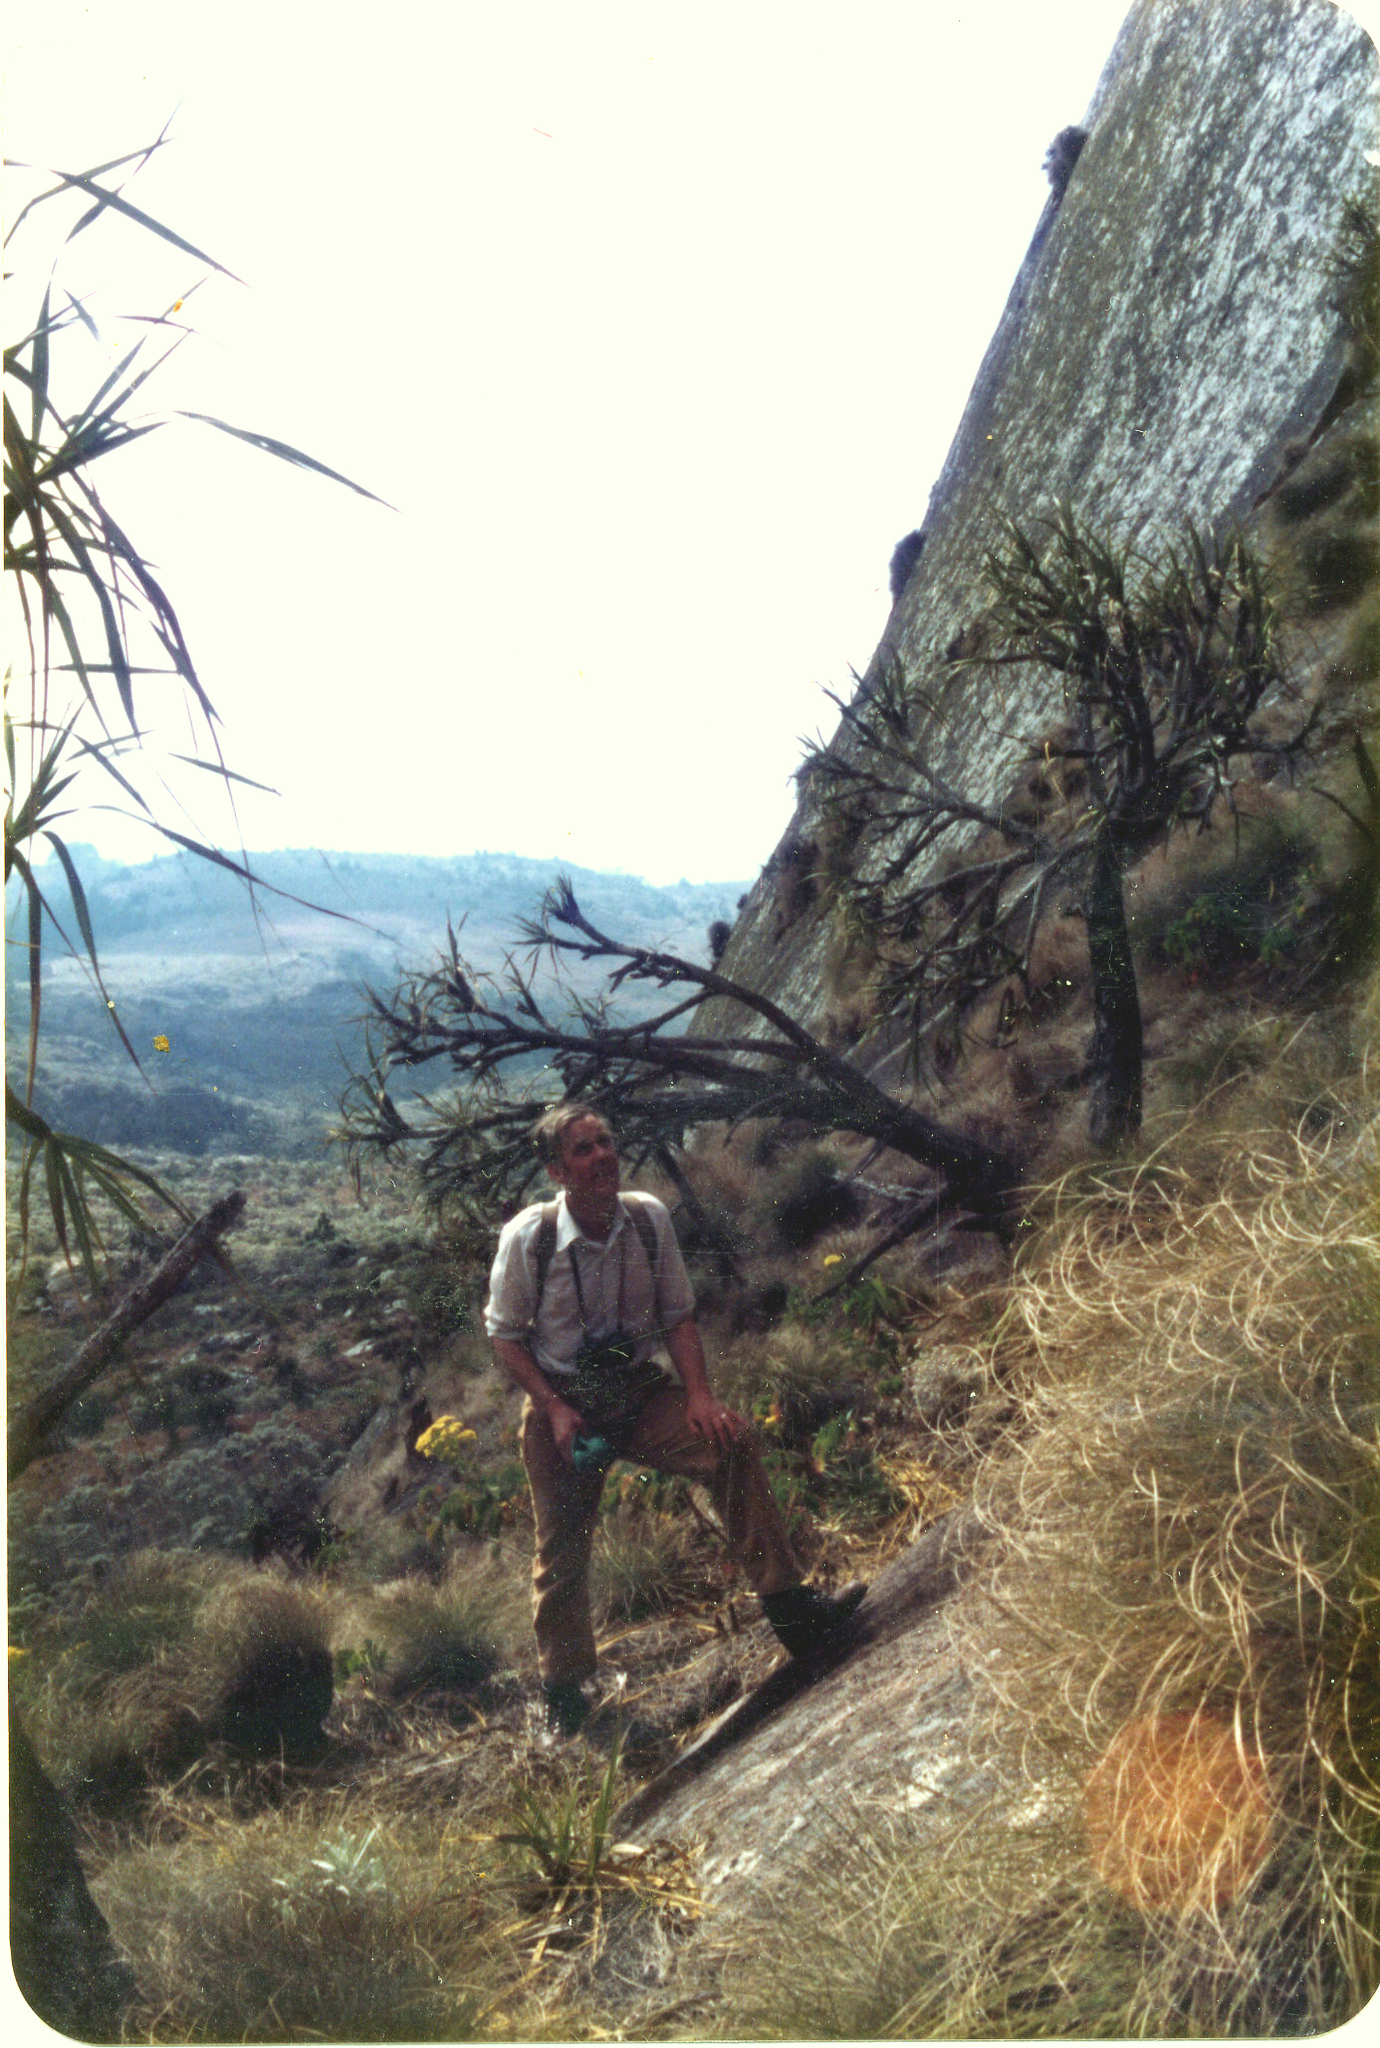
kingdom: Plantae
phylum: Tracheophyta
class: Liliopsida
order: Pandanales
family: Velloziaceae
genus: Xerophyta
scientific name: Xerophyta splendens
